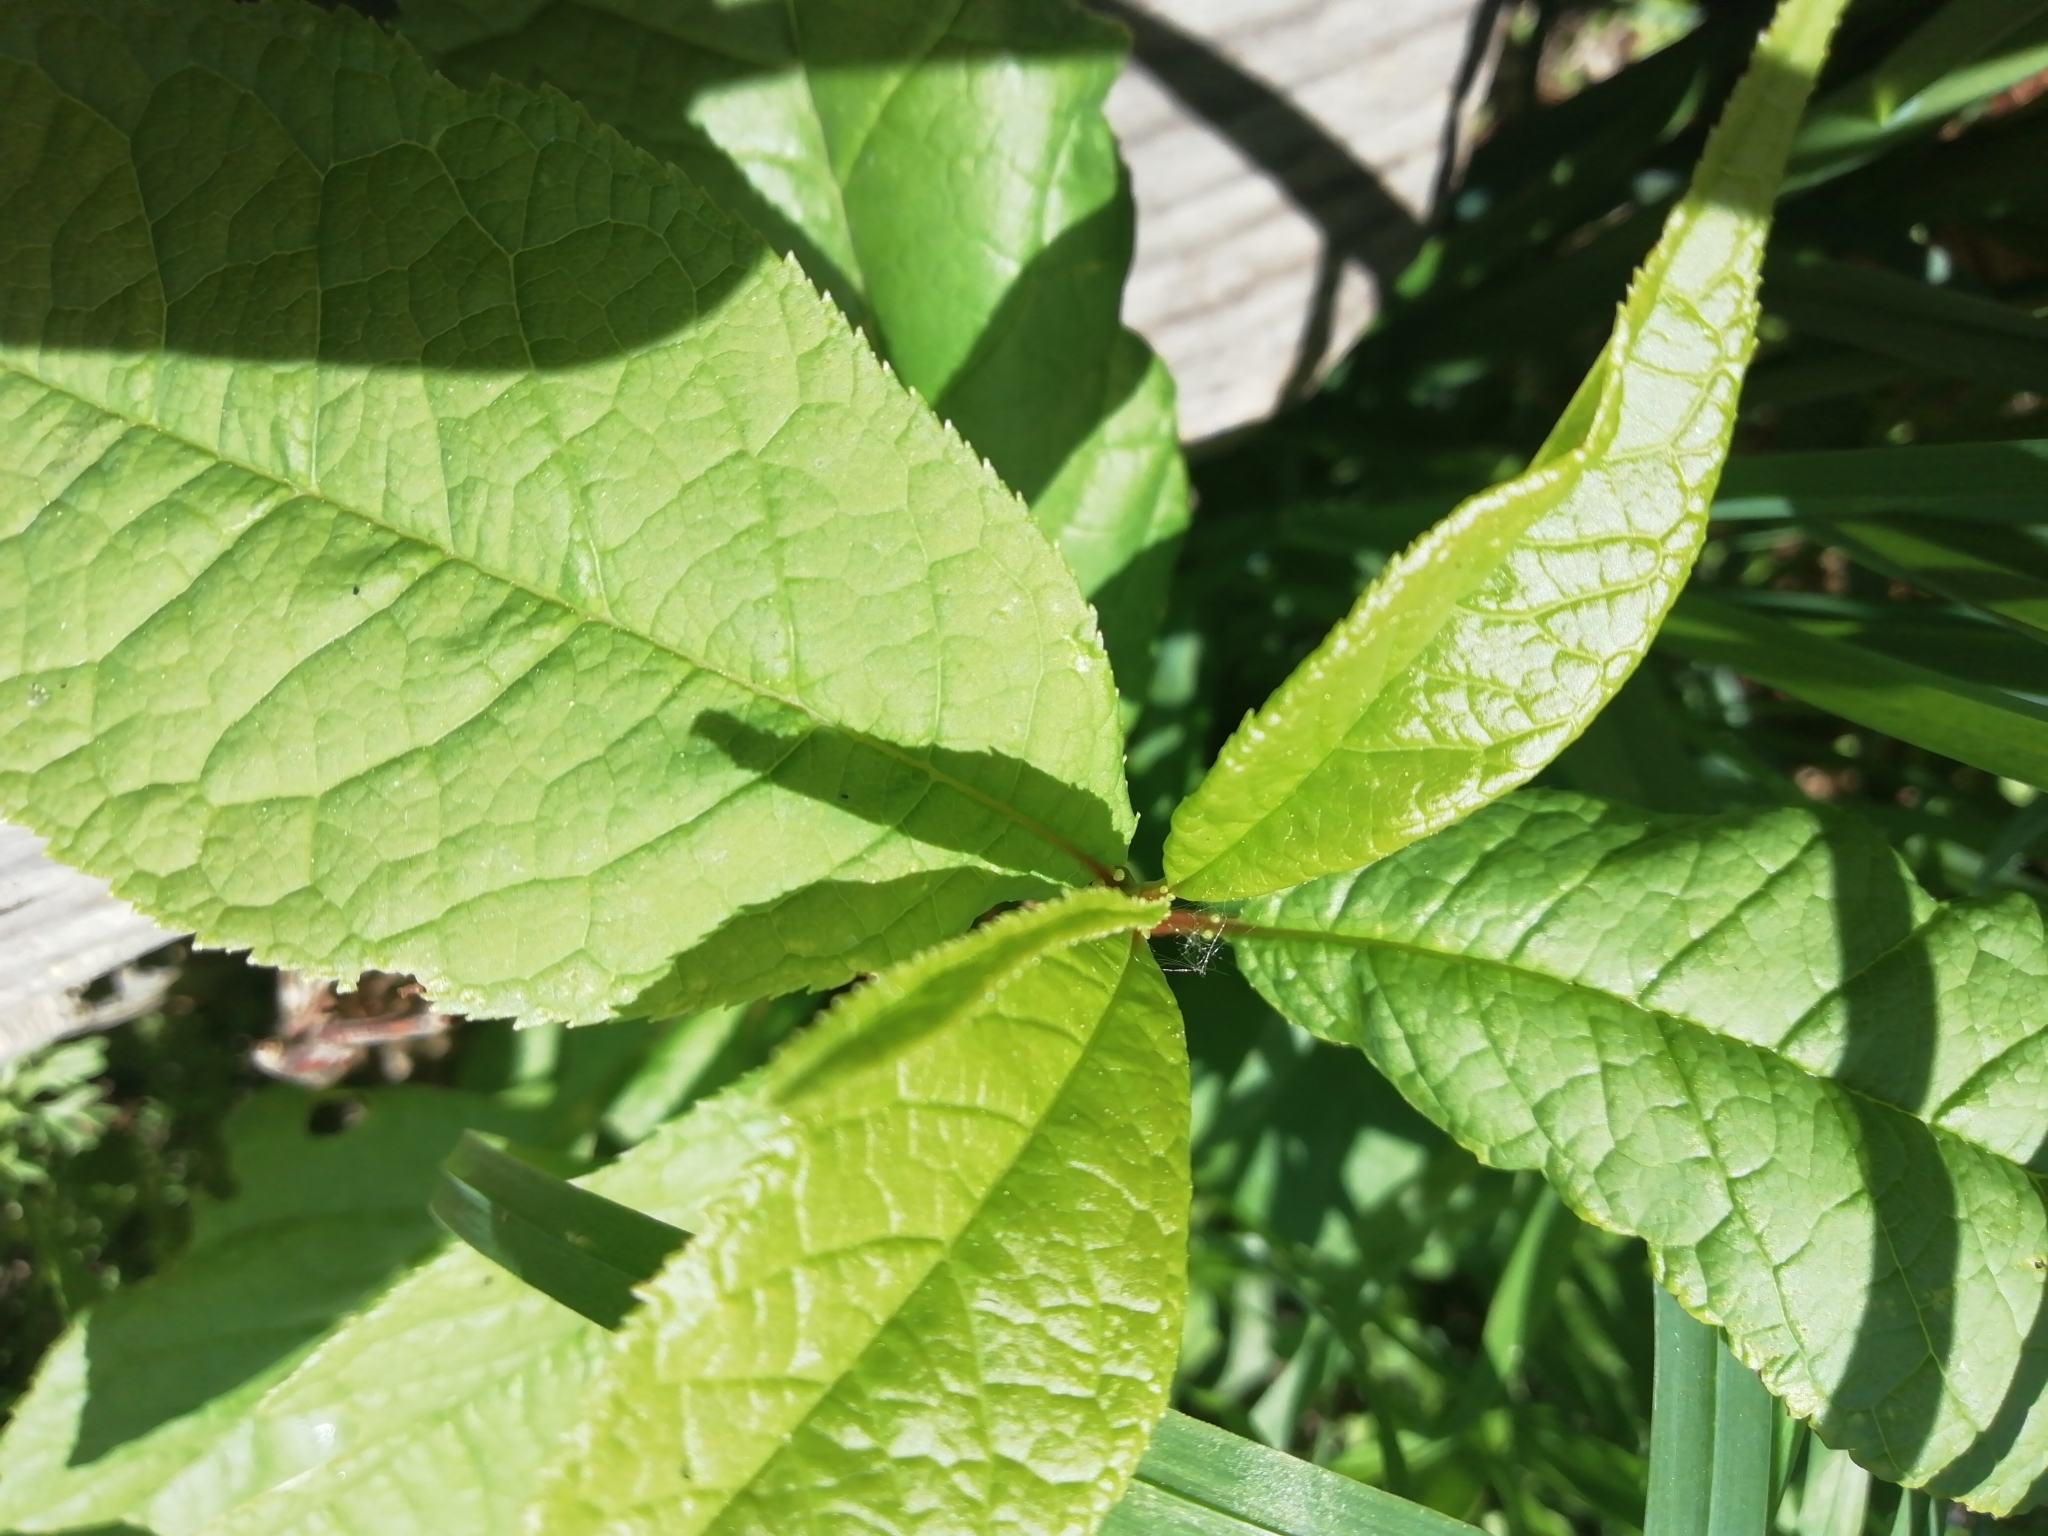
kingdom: Plantae
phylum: Tracheophyta
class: Magnoliopsida
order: Rosales
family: Rosaceae
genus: Prunus
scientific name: Prunus padus
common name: Bird cherry
